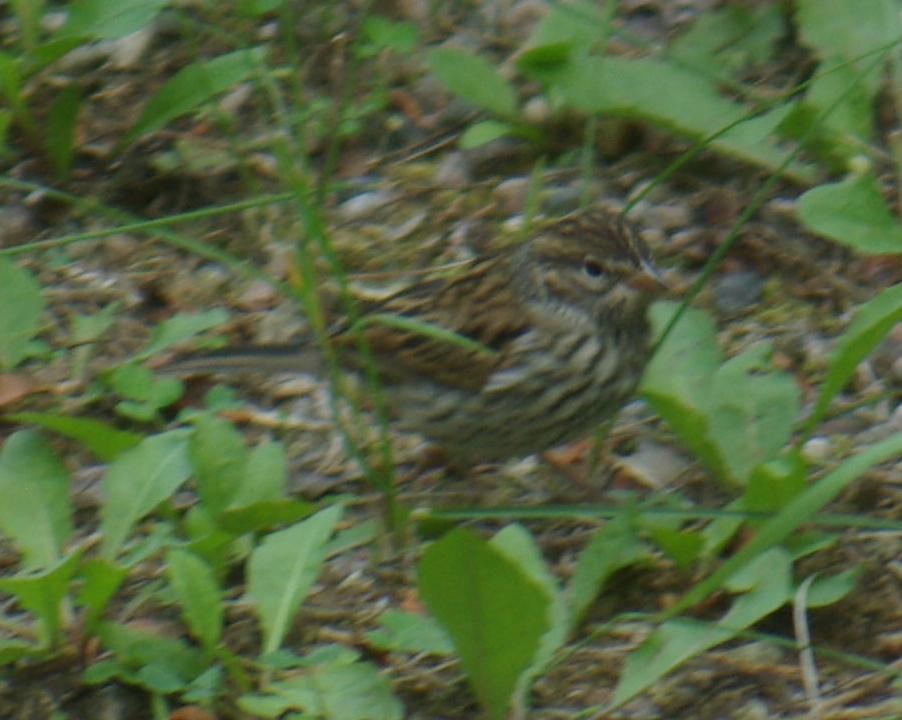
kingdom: Animalia
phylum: Chordata
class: Aves
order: Passeriformes
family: Passerellidae
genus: Spizella
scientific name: Spizella passerina
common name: Chipping sparrow
